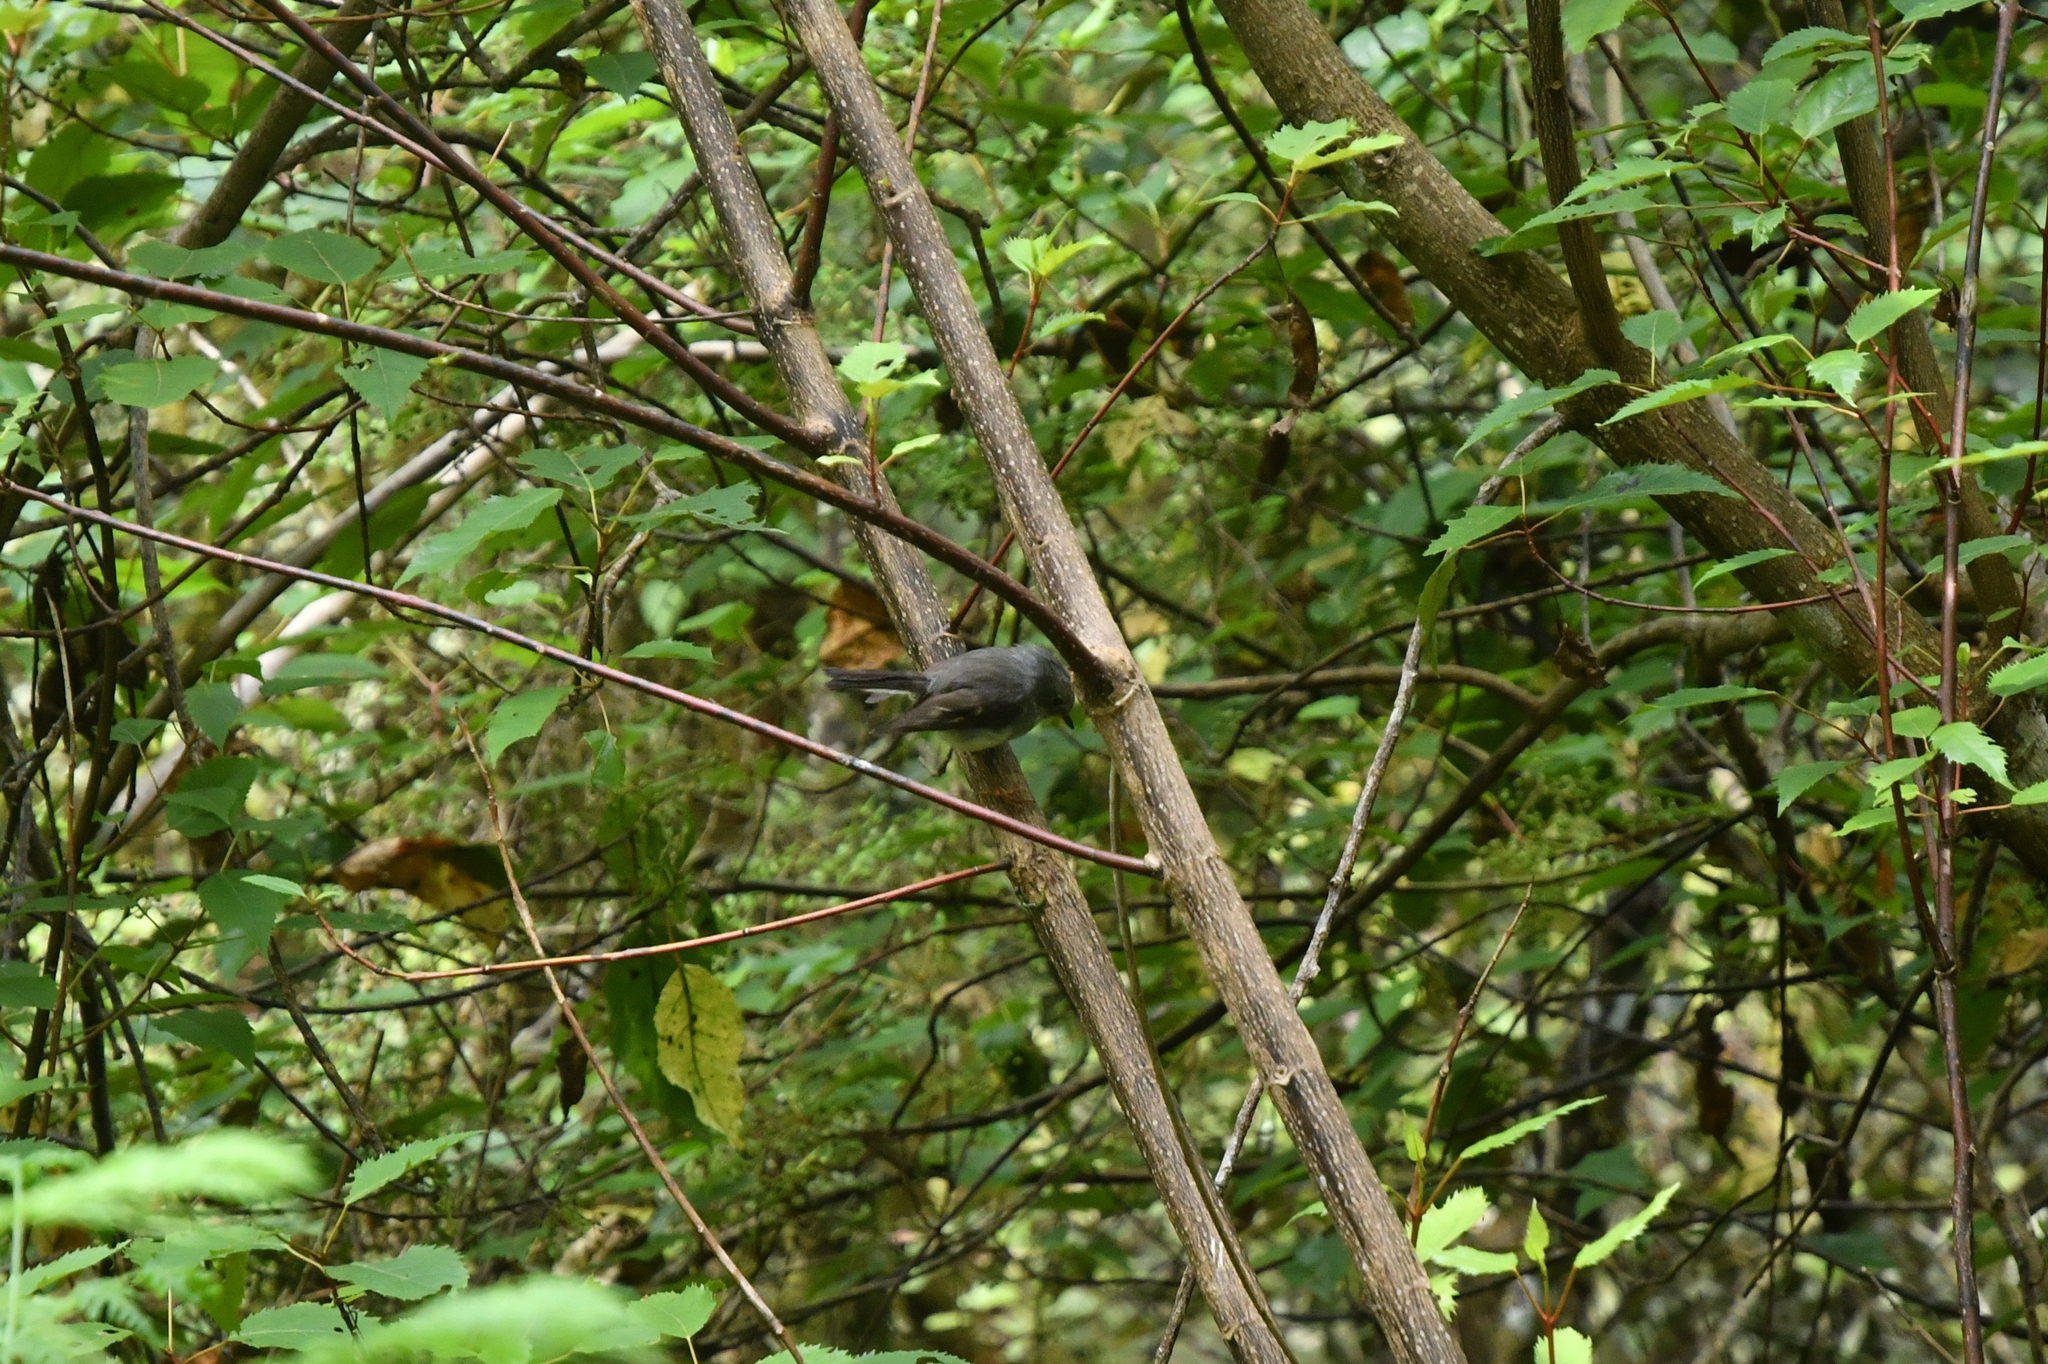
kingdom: Animalia
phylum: Chordata
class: Aves
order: Passeriformes
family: Petroicidae
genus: Petroica
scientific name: Petroica macrocephala
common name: Tomtit
